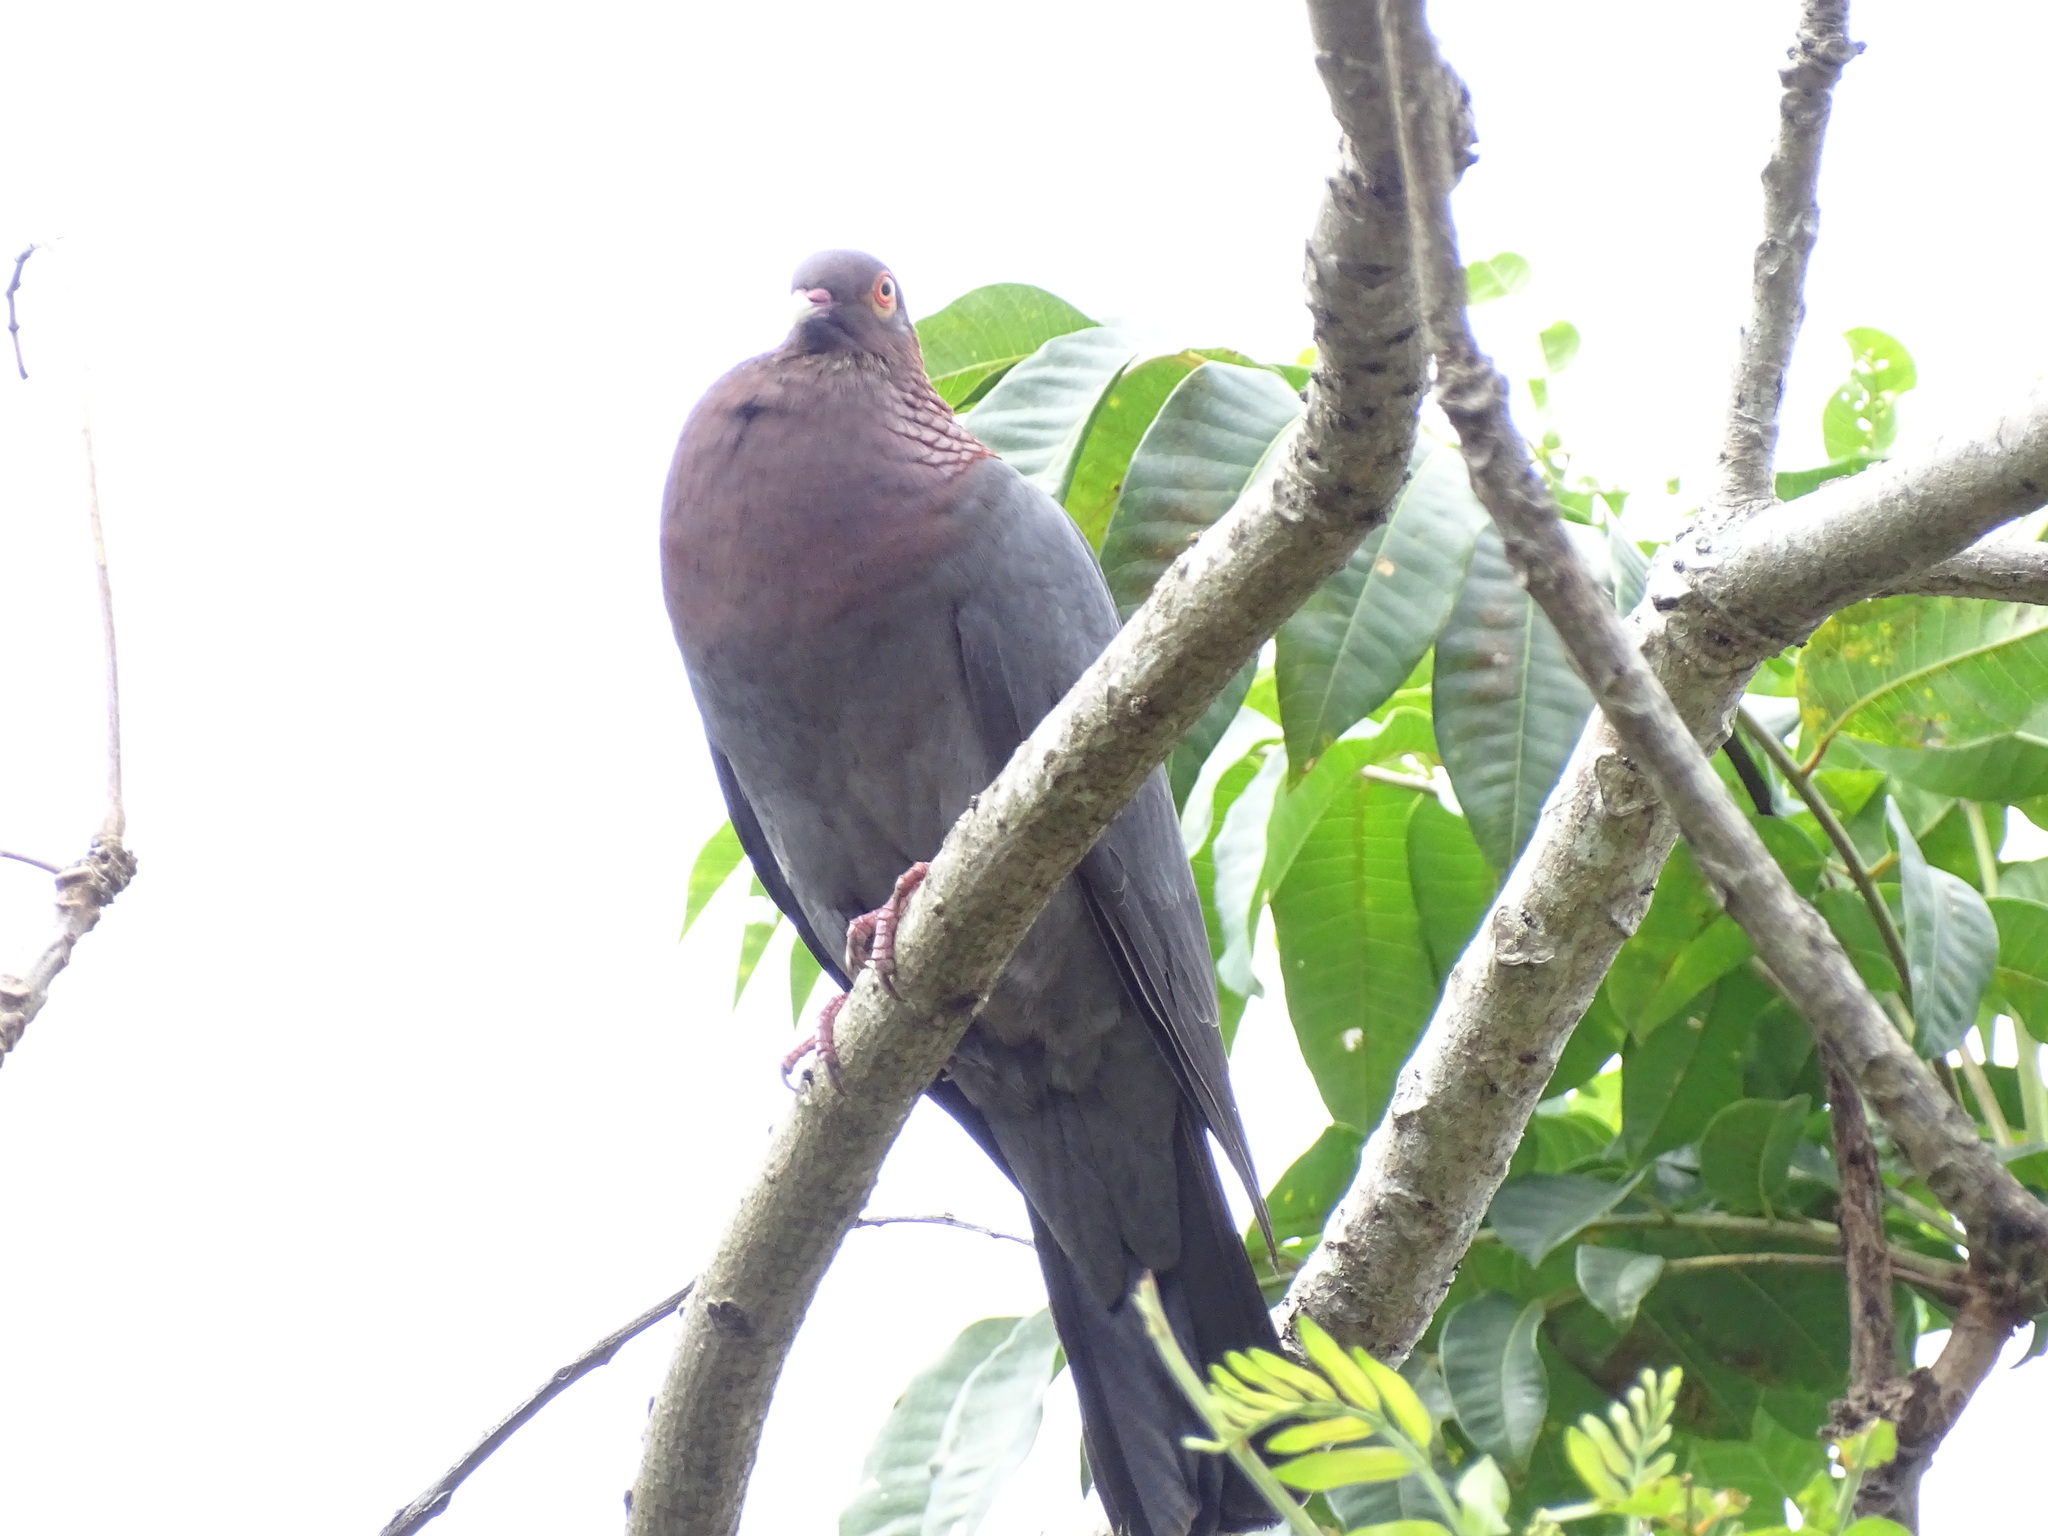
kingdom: Animalia
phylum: Chordata
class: Aves
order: Columbiformes
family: Columbidae
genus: Patagioenas
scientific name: Patagioenas squamosa
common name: Scaly-naped pigeon
